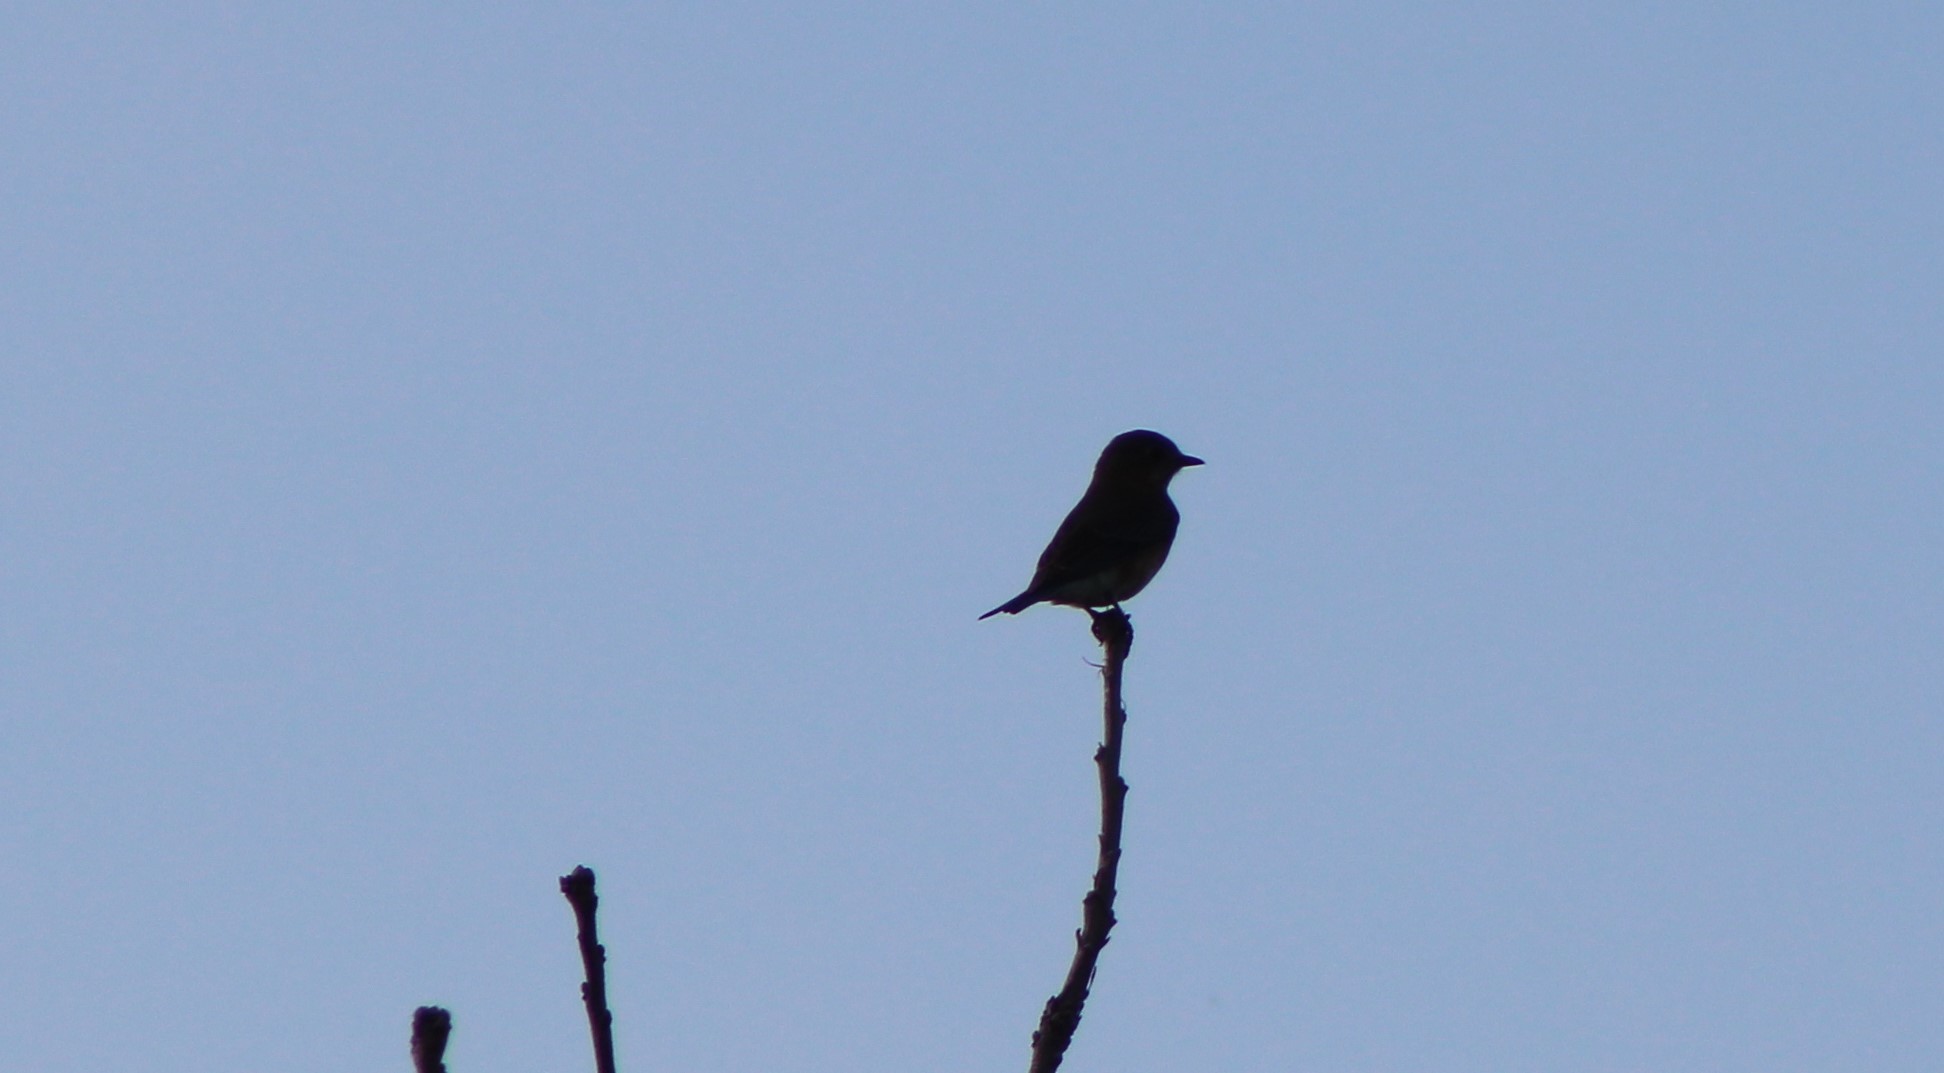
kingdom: Animalia
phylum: Chordata
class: Aves
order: Passeriformes
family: Turdidae
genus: Sialia
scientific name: Sialia sialis
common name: Eastern bluebird
